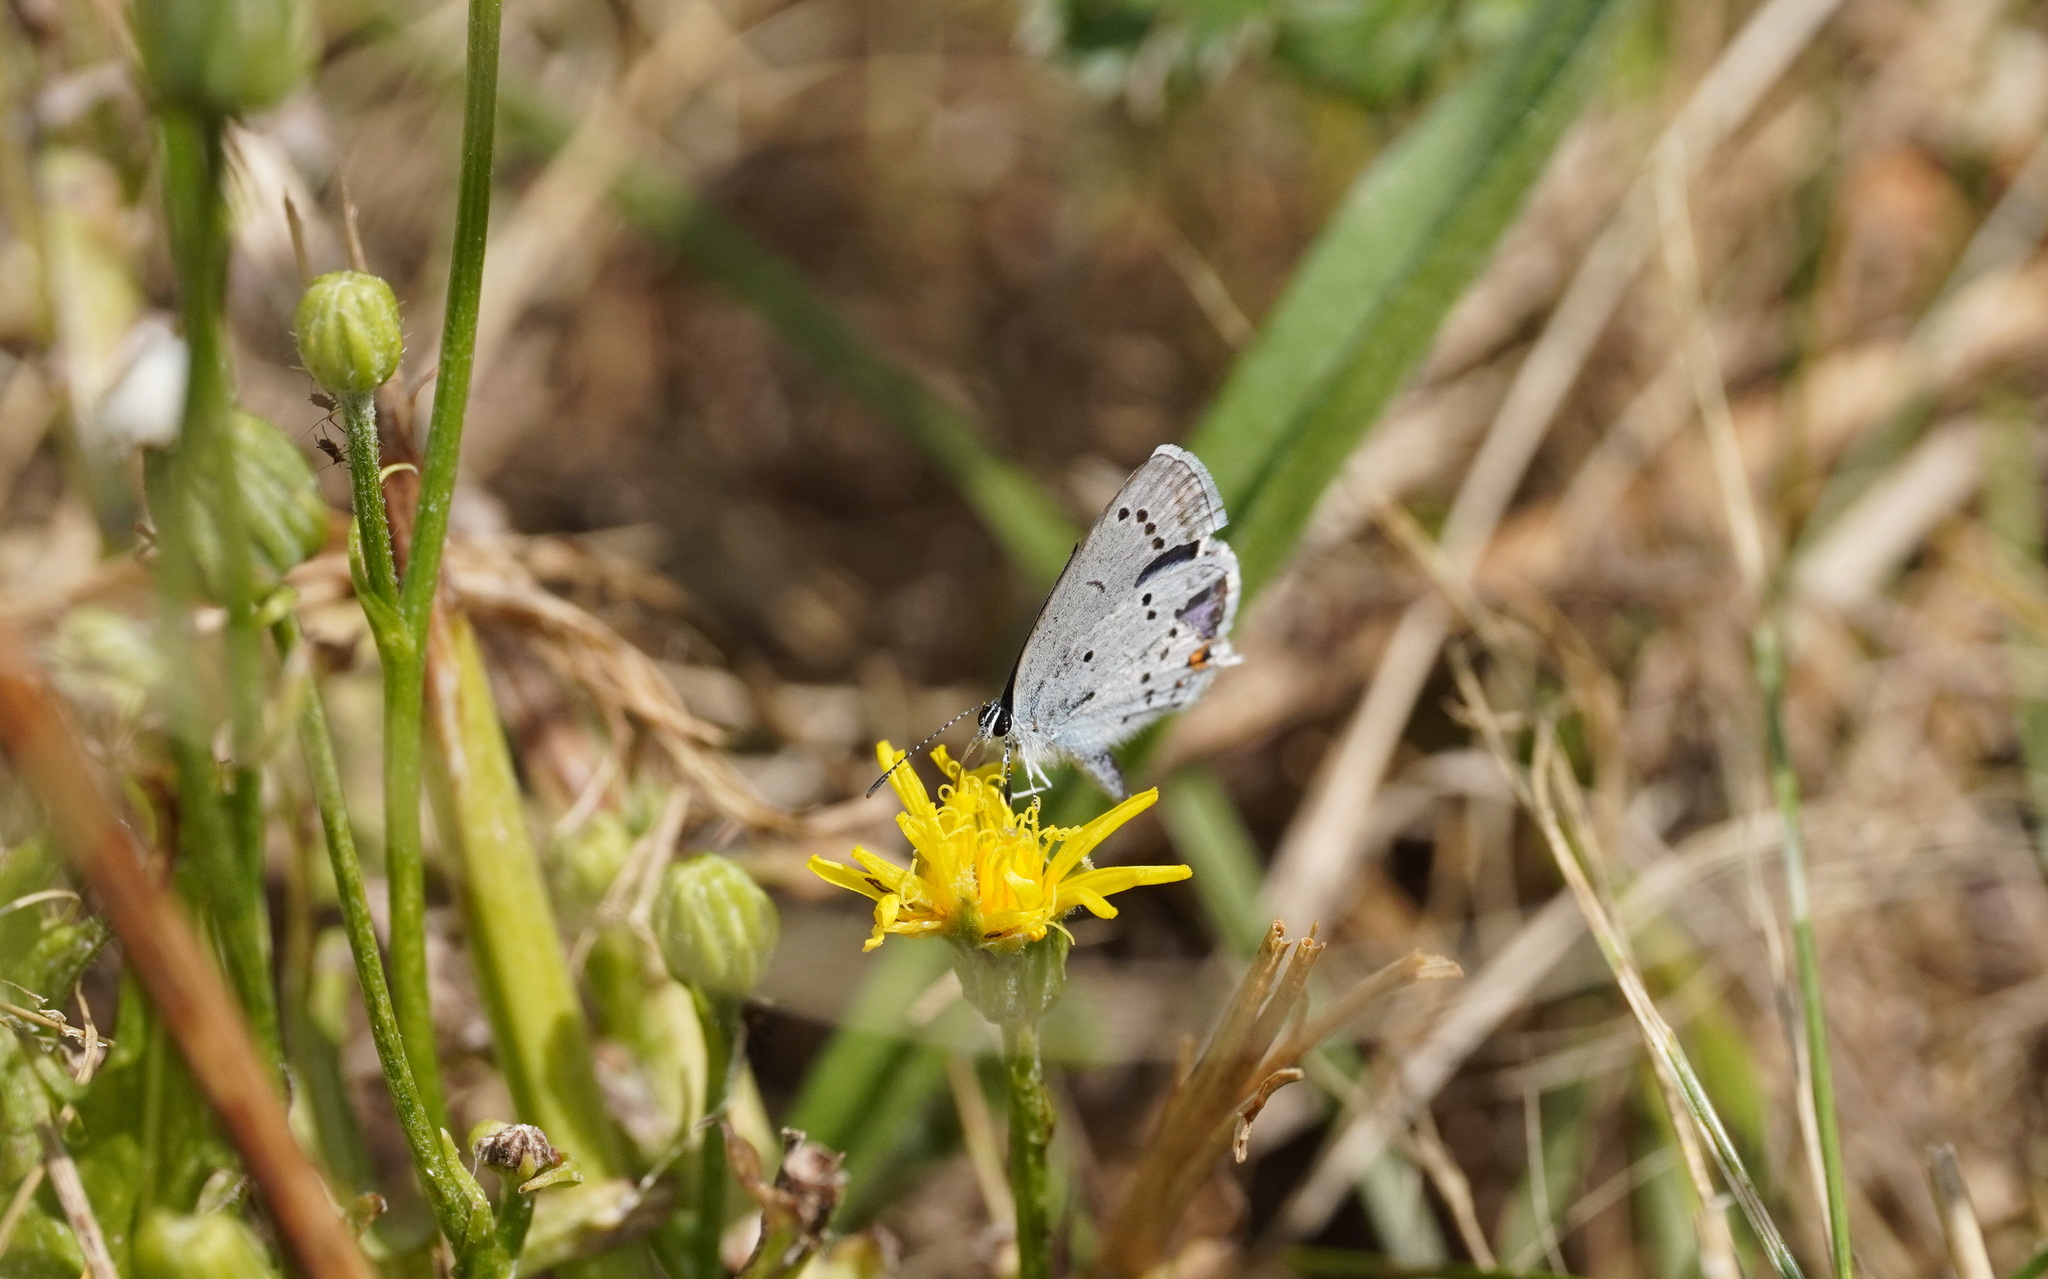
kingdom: Animalia
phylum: Arthropoda
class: Insecta
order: Lepidoptera
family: Lycaenidae
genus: Elkalyce
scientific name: Elkalyce argiades
